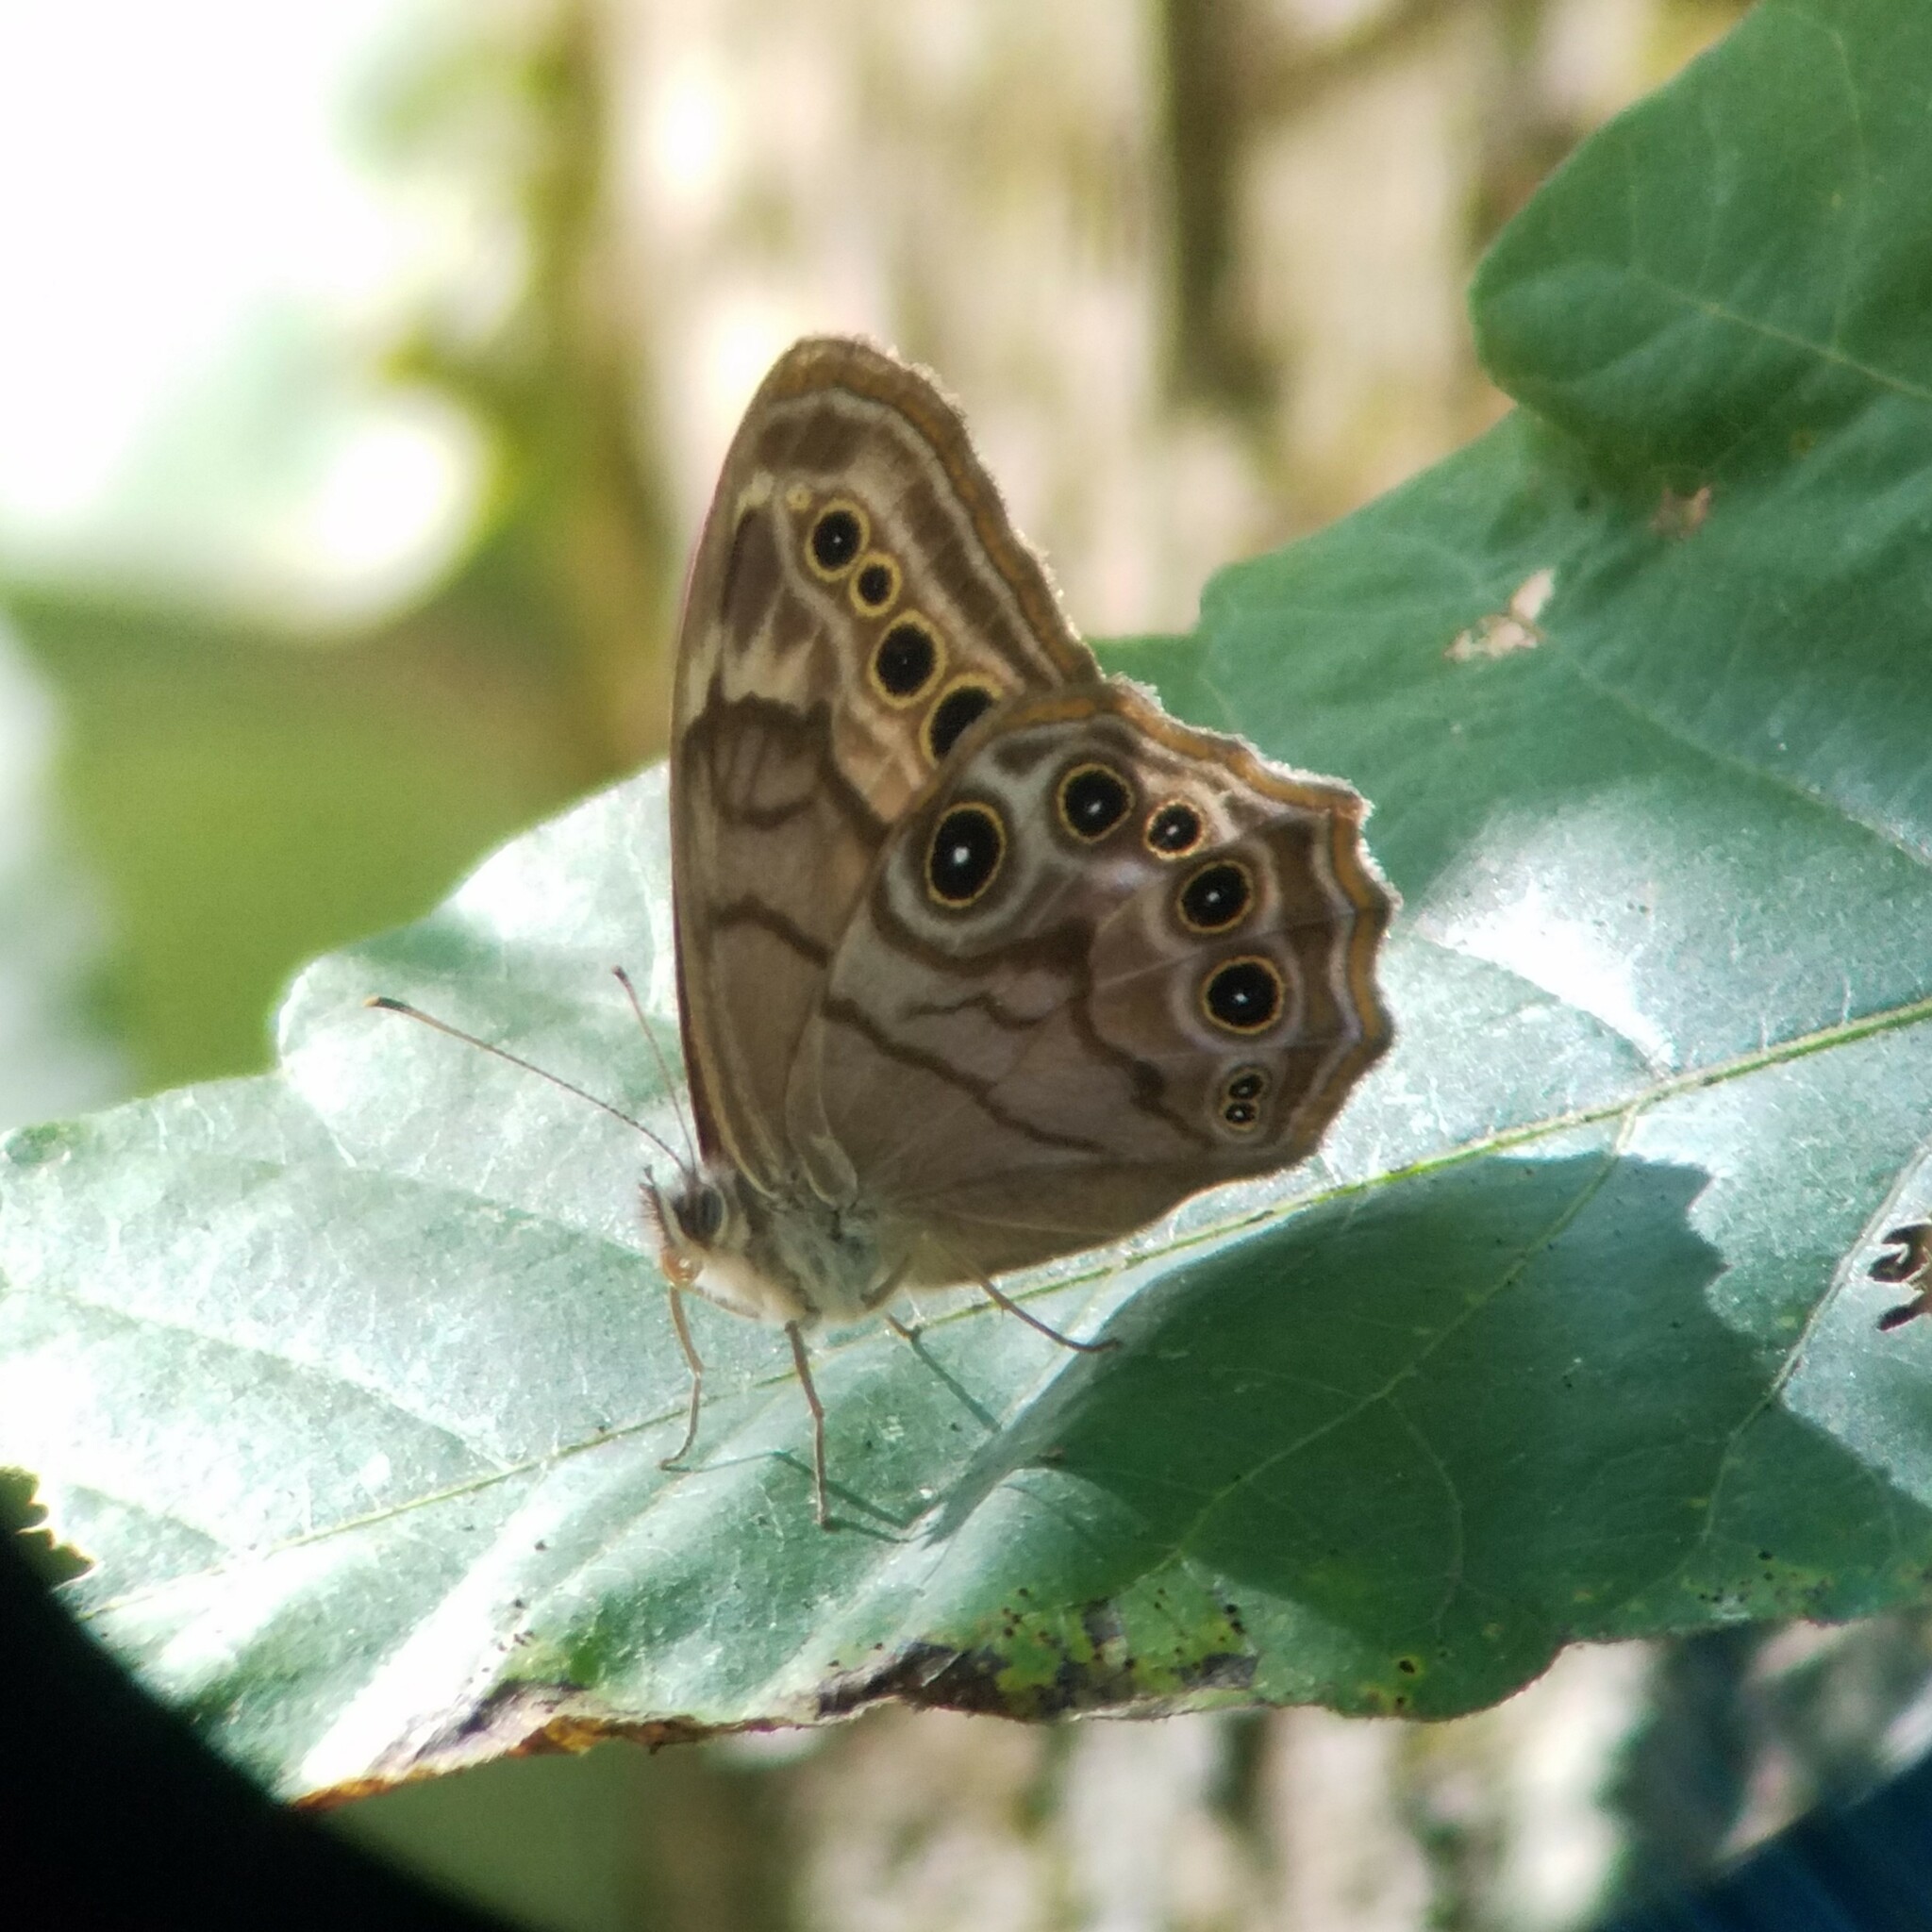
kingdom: Animalia
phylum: Arthropoda
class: Insecta
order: Lepidoptera
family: Nymphalidae
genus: Lethe
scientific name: Lethe anthedon
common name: Northern pearly-eye
